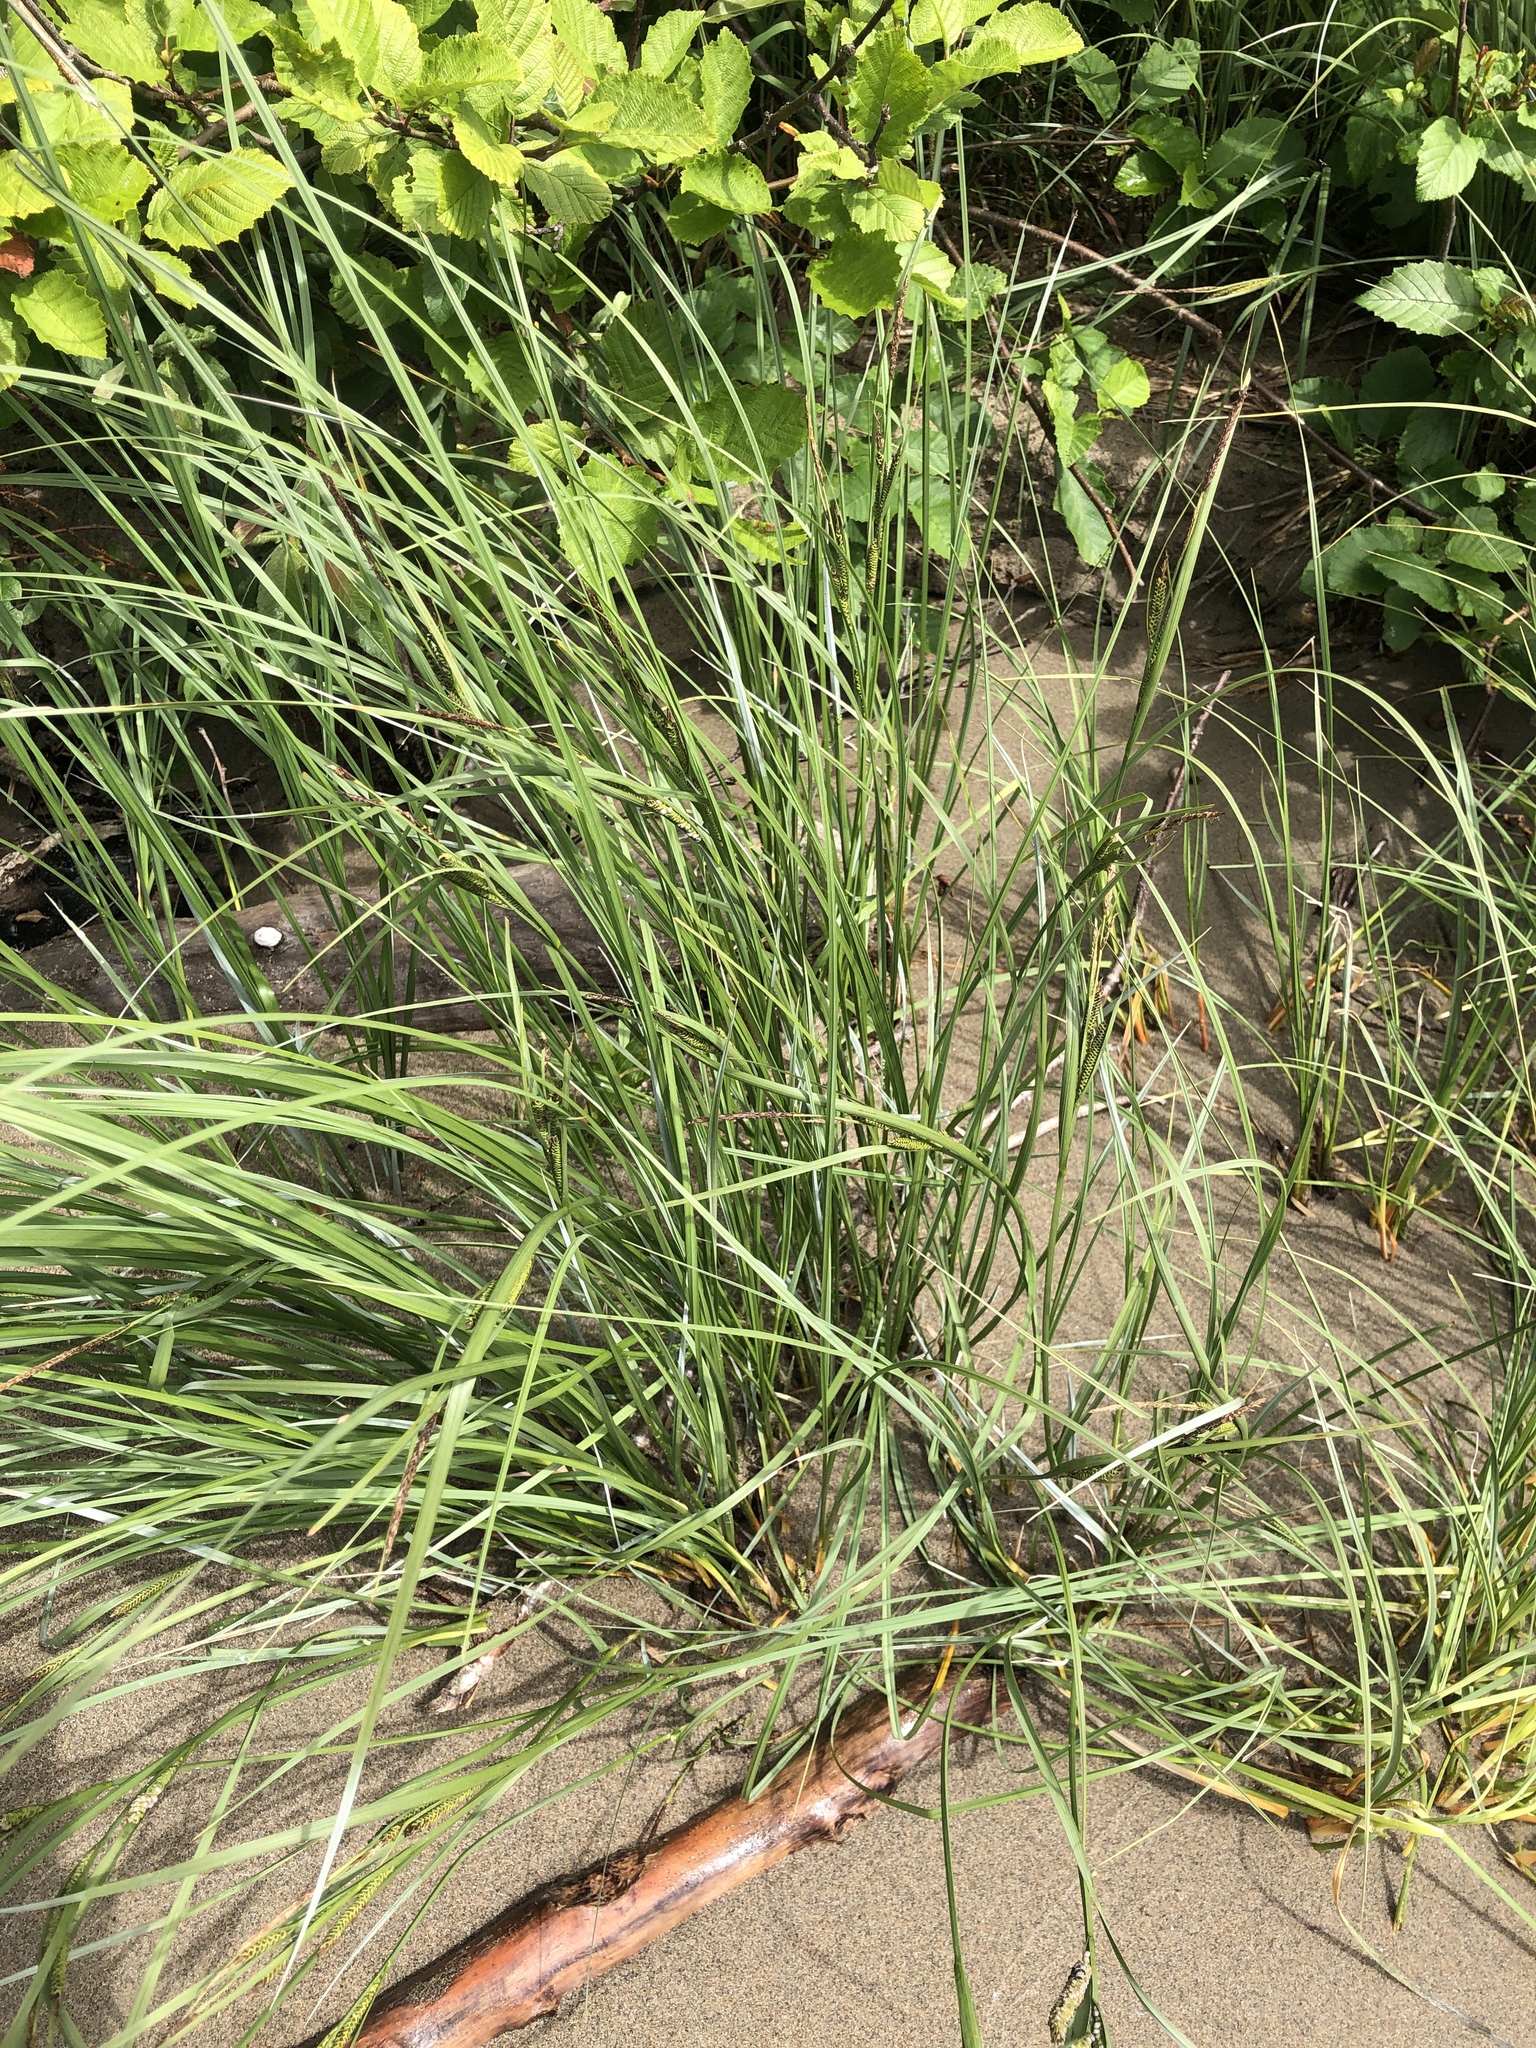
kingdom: Plantae
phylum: Tracheophyta
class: Liliopsida
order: Poales
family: Cyperaceae
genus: Carex
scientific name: Carex aquatilis
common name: Water sedge
